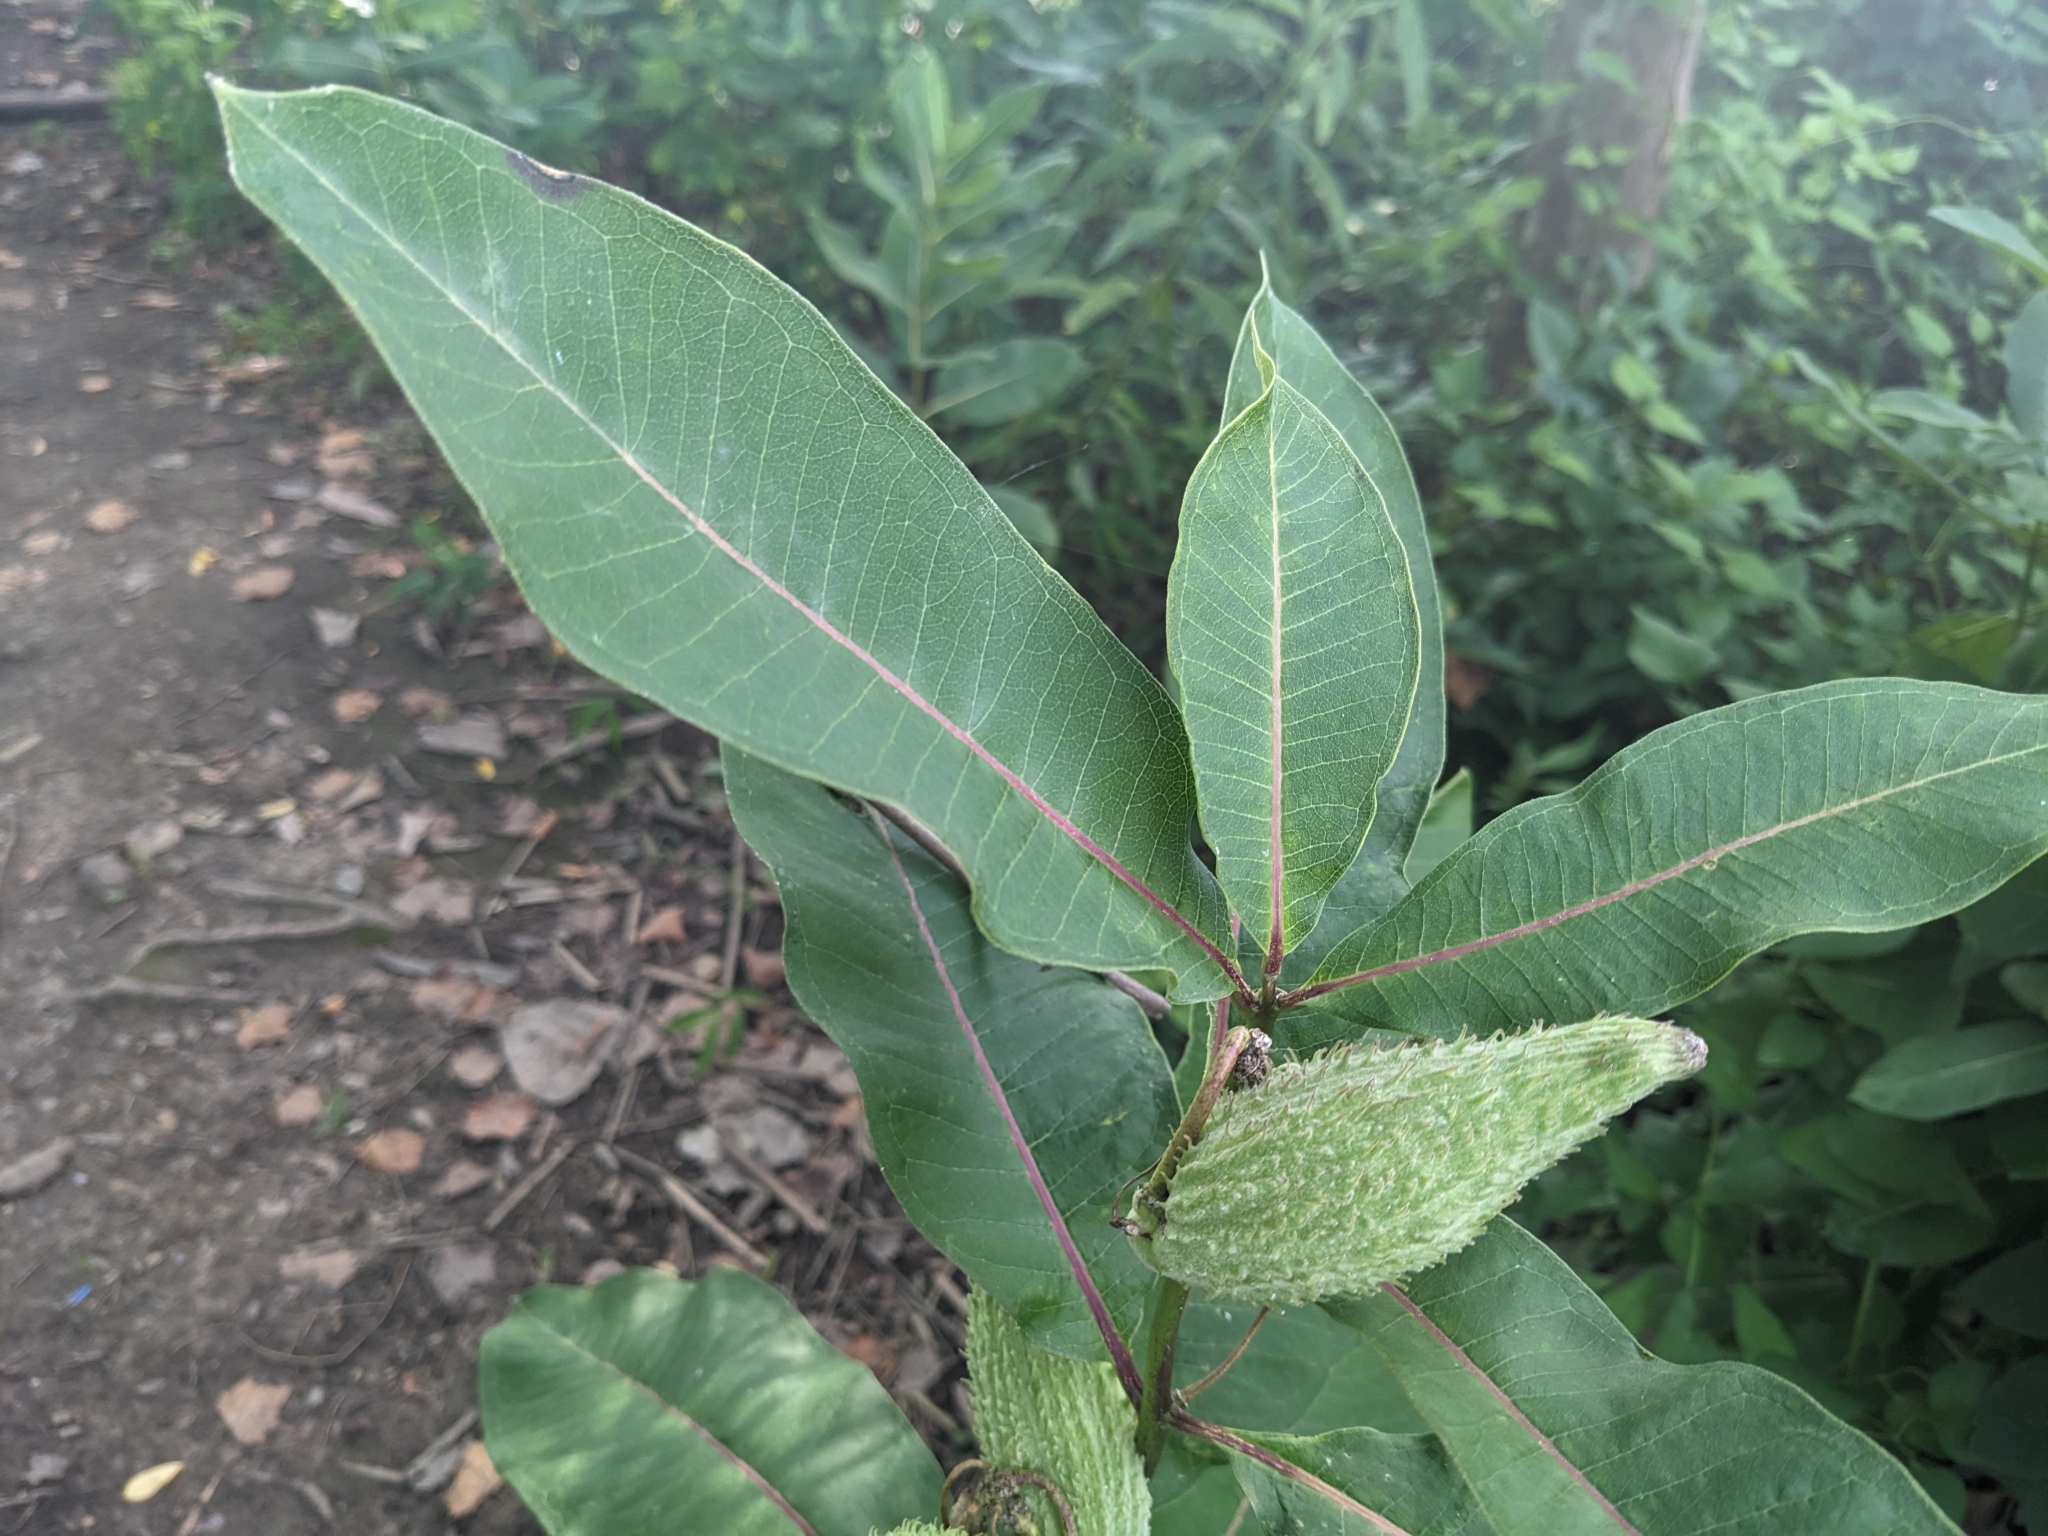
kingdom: Plantae
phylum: Tracheophyta
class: Magnoliopsida
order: Gentianales
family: Apocynaceae
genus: Asclepias
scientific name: Asclepias syriaca
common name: Common milkweed
